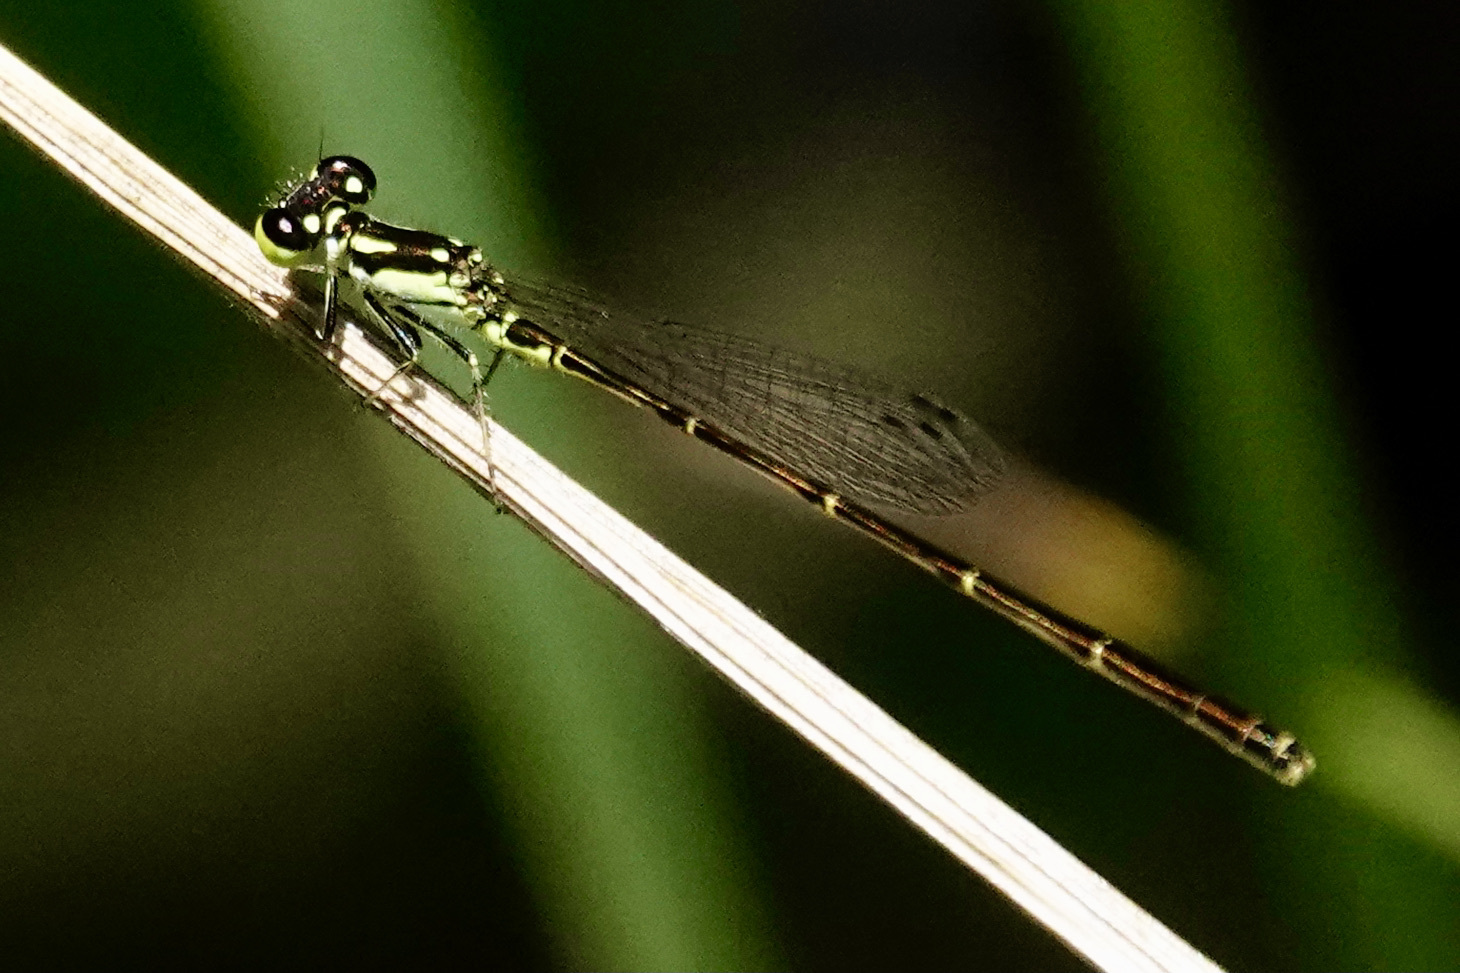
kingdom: Animalia
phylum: Arthropoda
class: Insecta
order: Odonata
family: Coenagrionidae
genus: Ischnura
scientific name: Ischnura posita
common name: Fragile forktail
